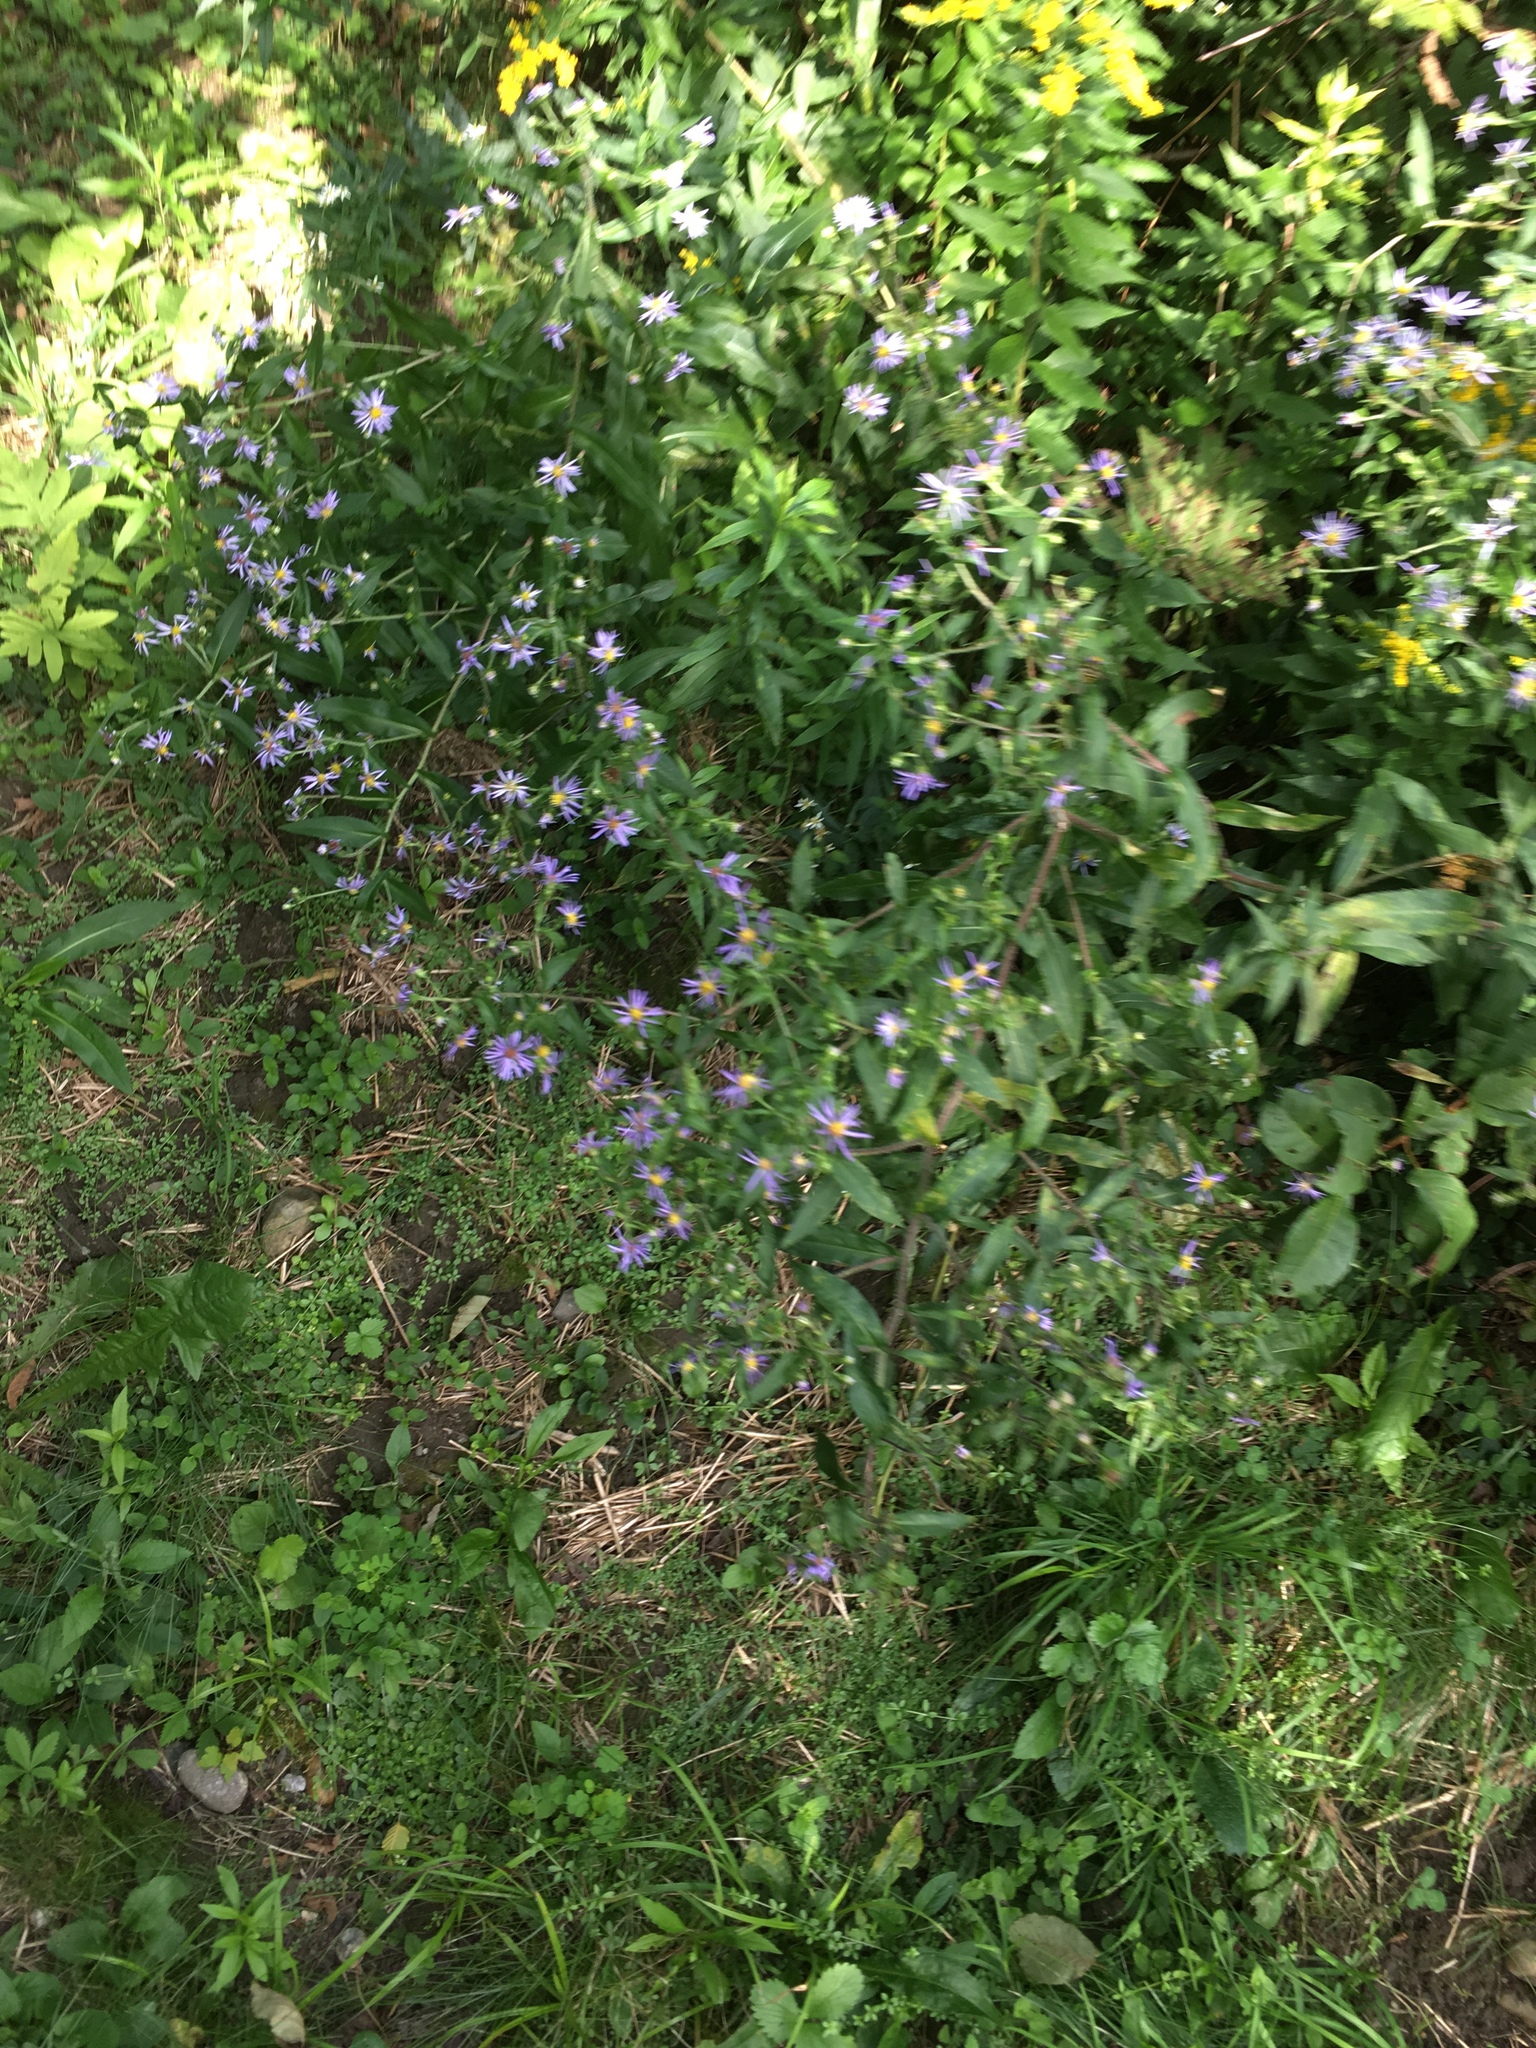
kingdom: Plantae
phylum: Tracheophyta
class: Magnoliopsida
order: Asterales
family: Asteraceae
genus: Symphyotrichum
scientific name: Symphyotrichum puniceum
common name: Bog aster
